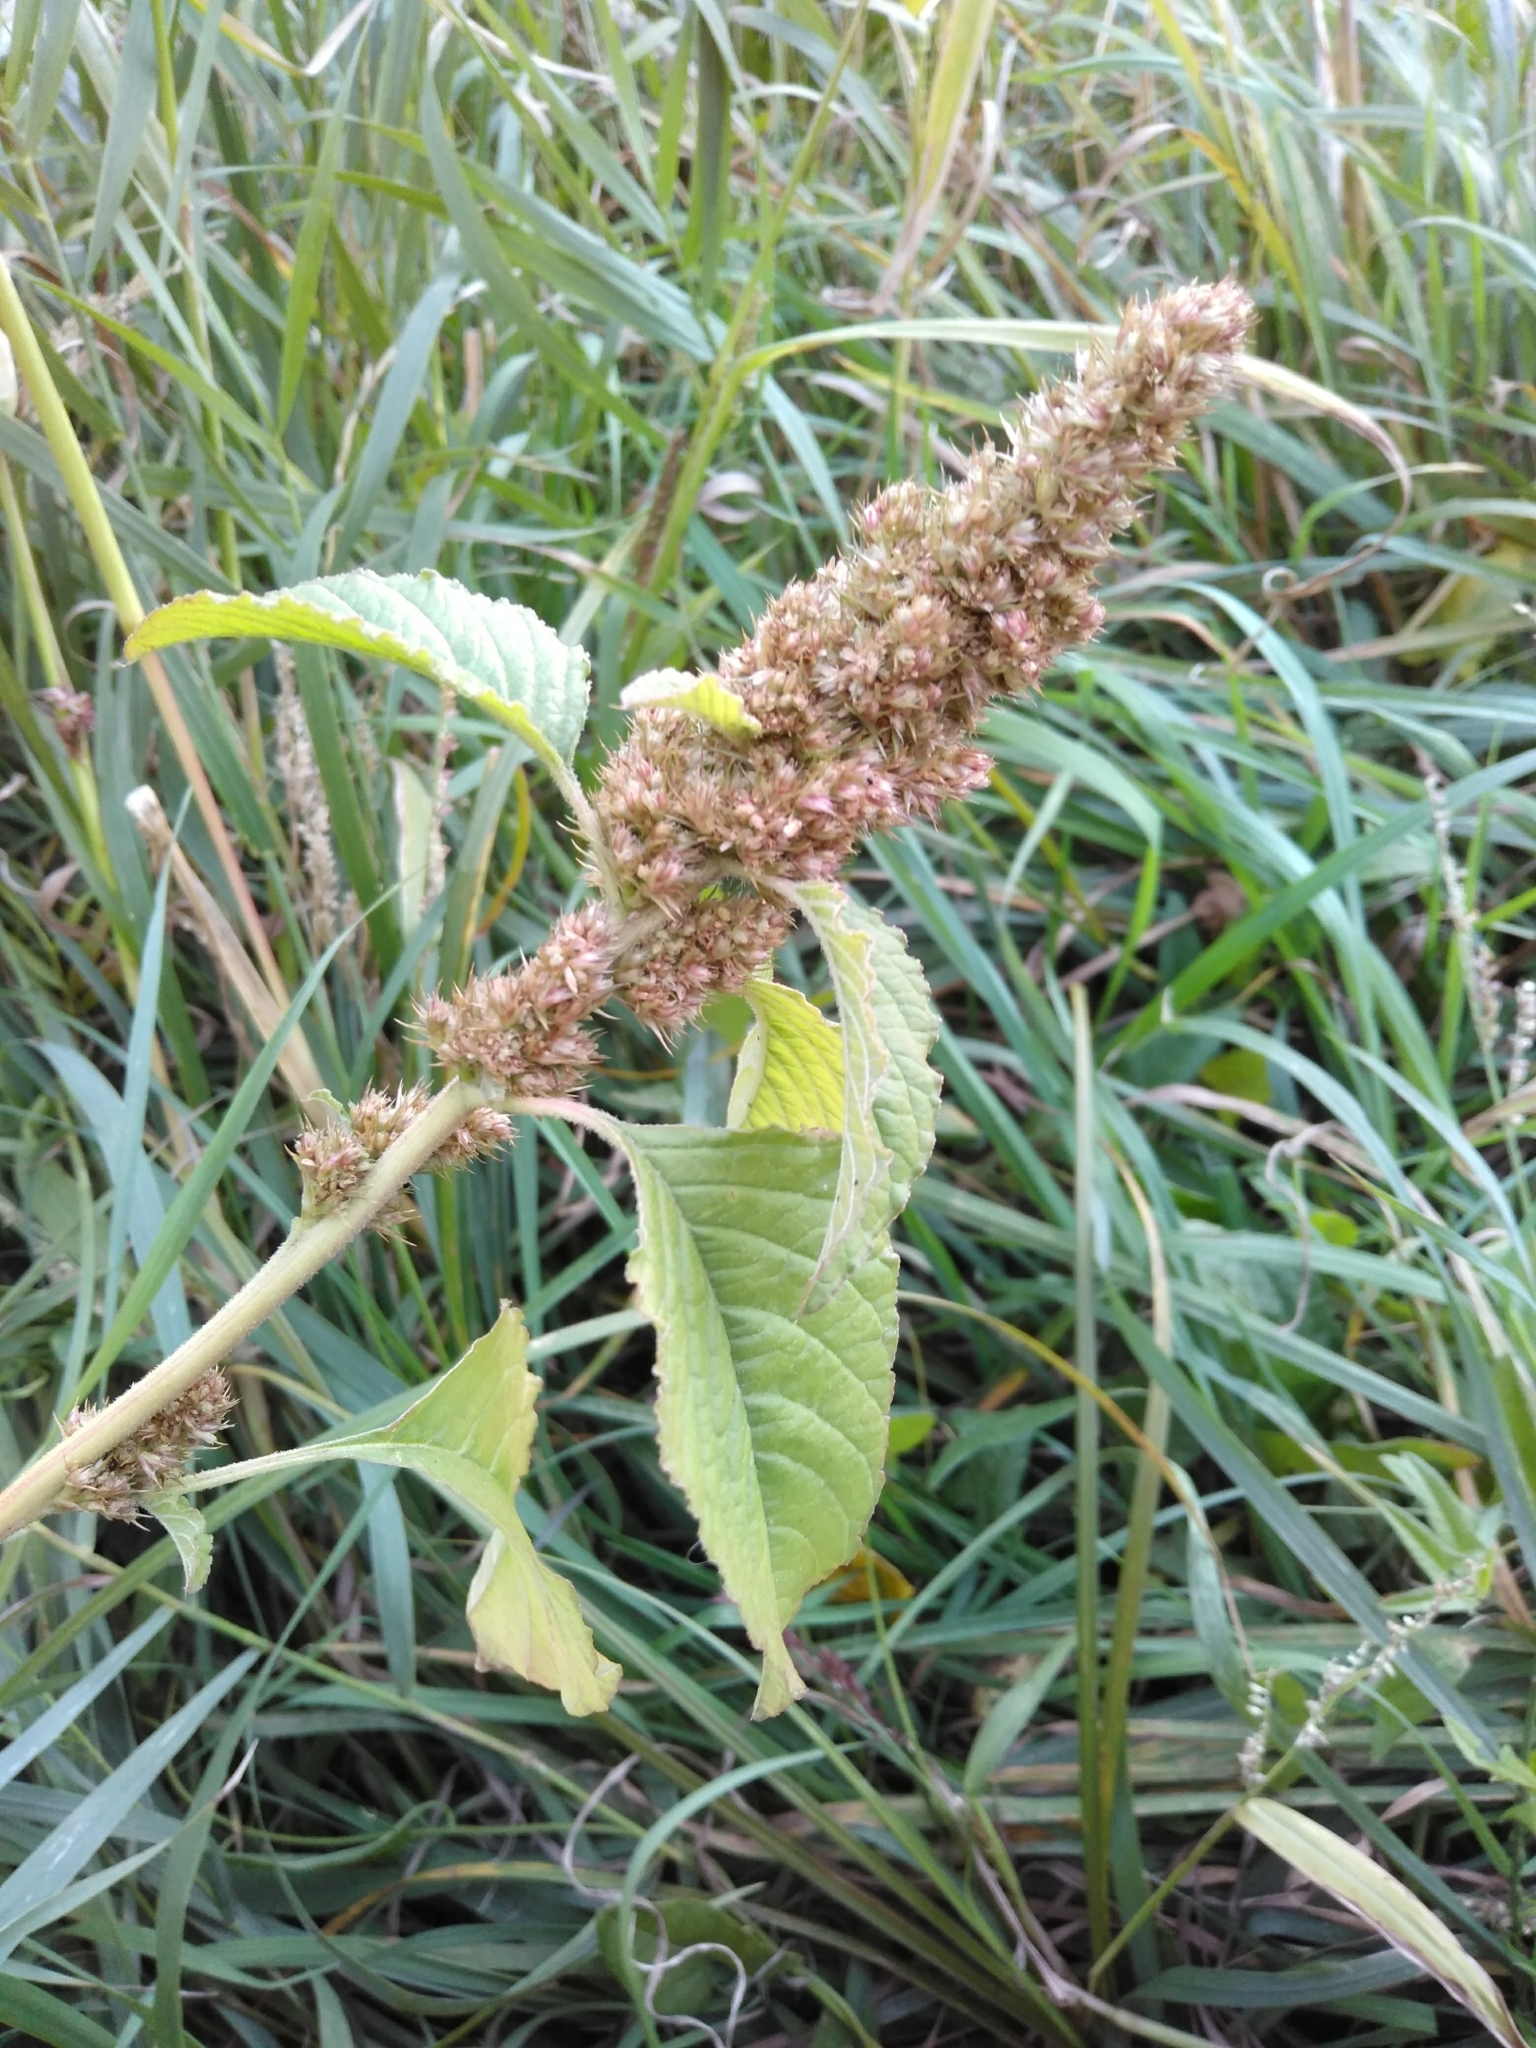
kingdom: Plantae
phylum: Tracheophyta
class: Magnoliopsida
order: Caryophyllales
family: Amaranthaceae
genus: Amaranthus
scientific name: Amaranthus retroflexus
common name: Redroot amaranth
